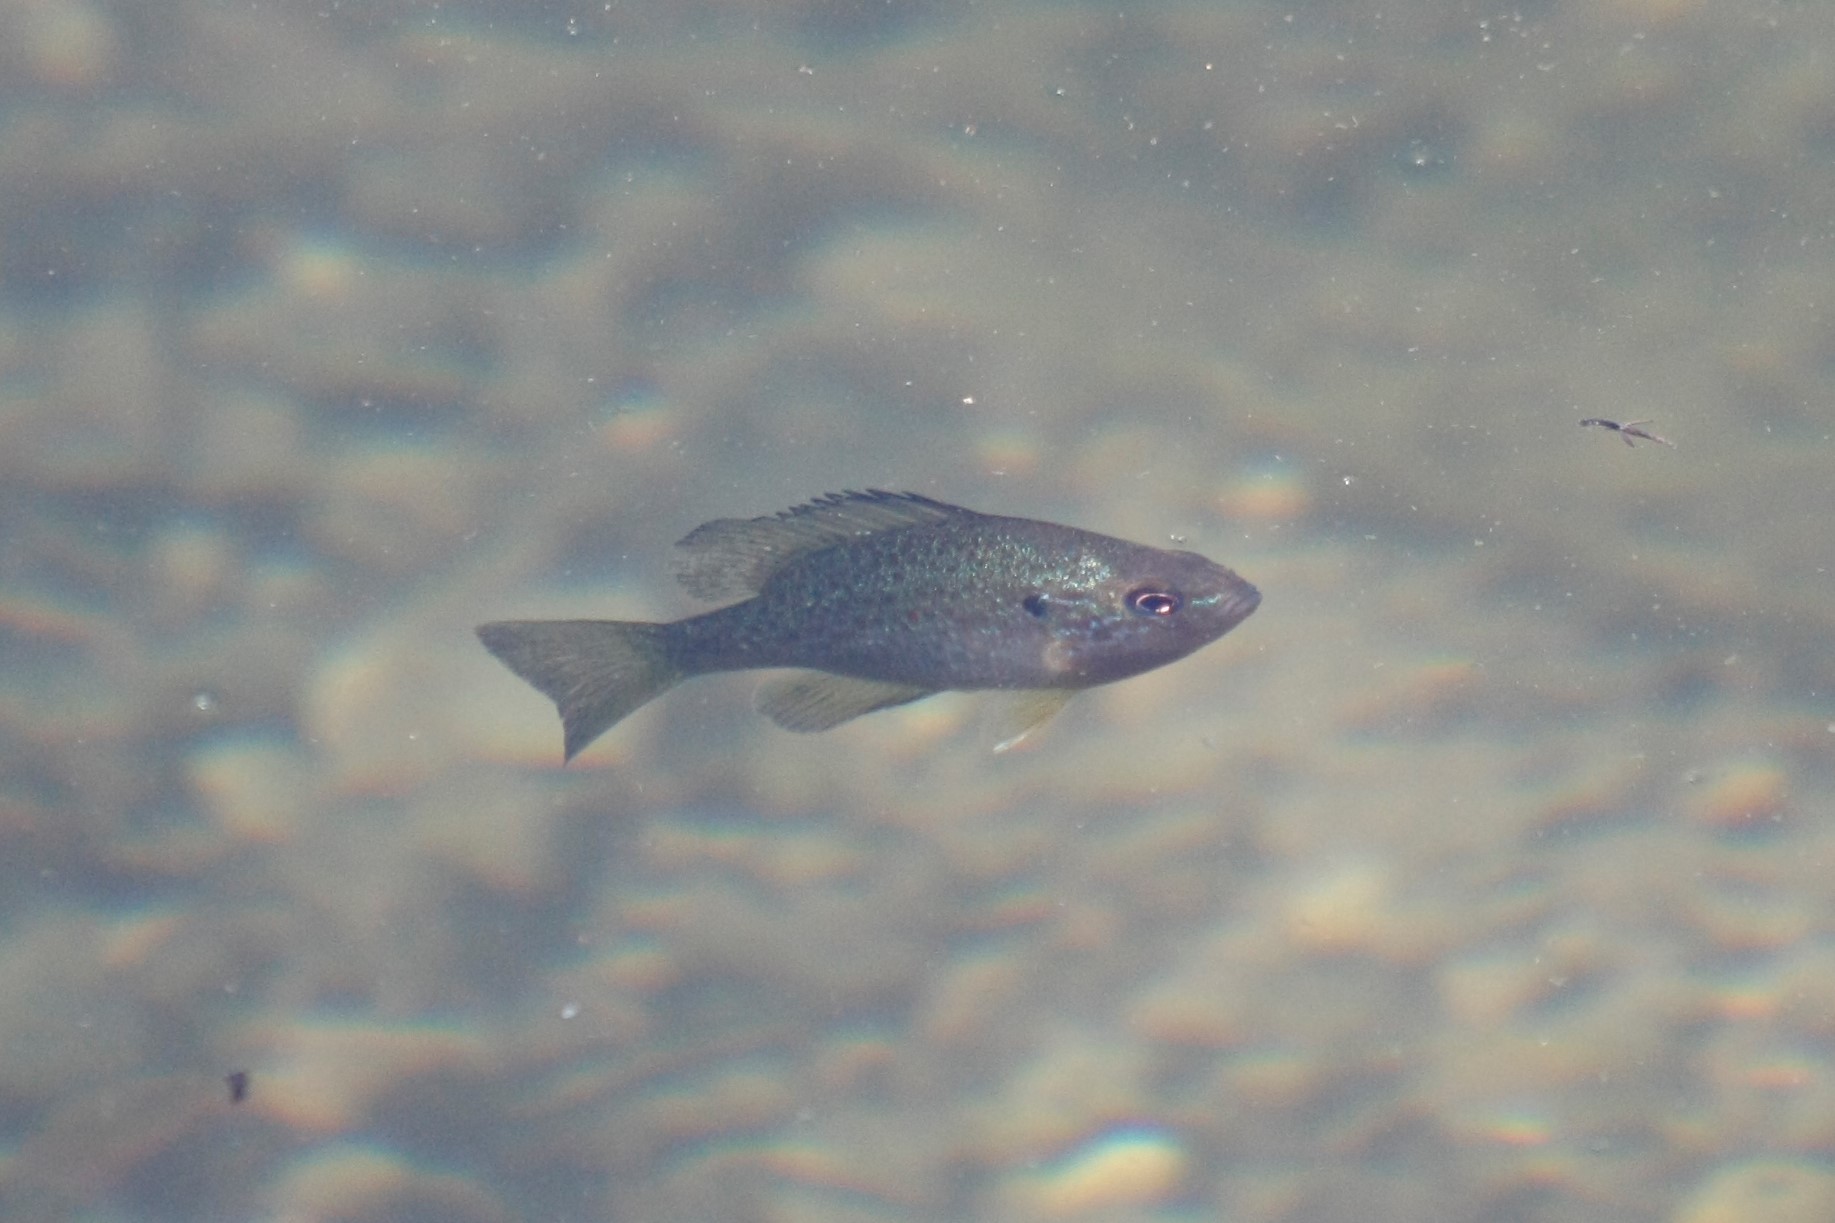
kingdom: Animalia
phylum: Chordata
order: Perciformes
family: Centrarchidae
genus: Lepomis
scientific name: Lepomis gibbosus
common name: Pumpkinseed
